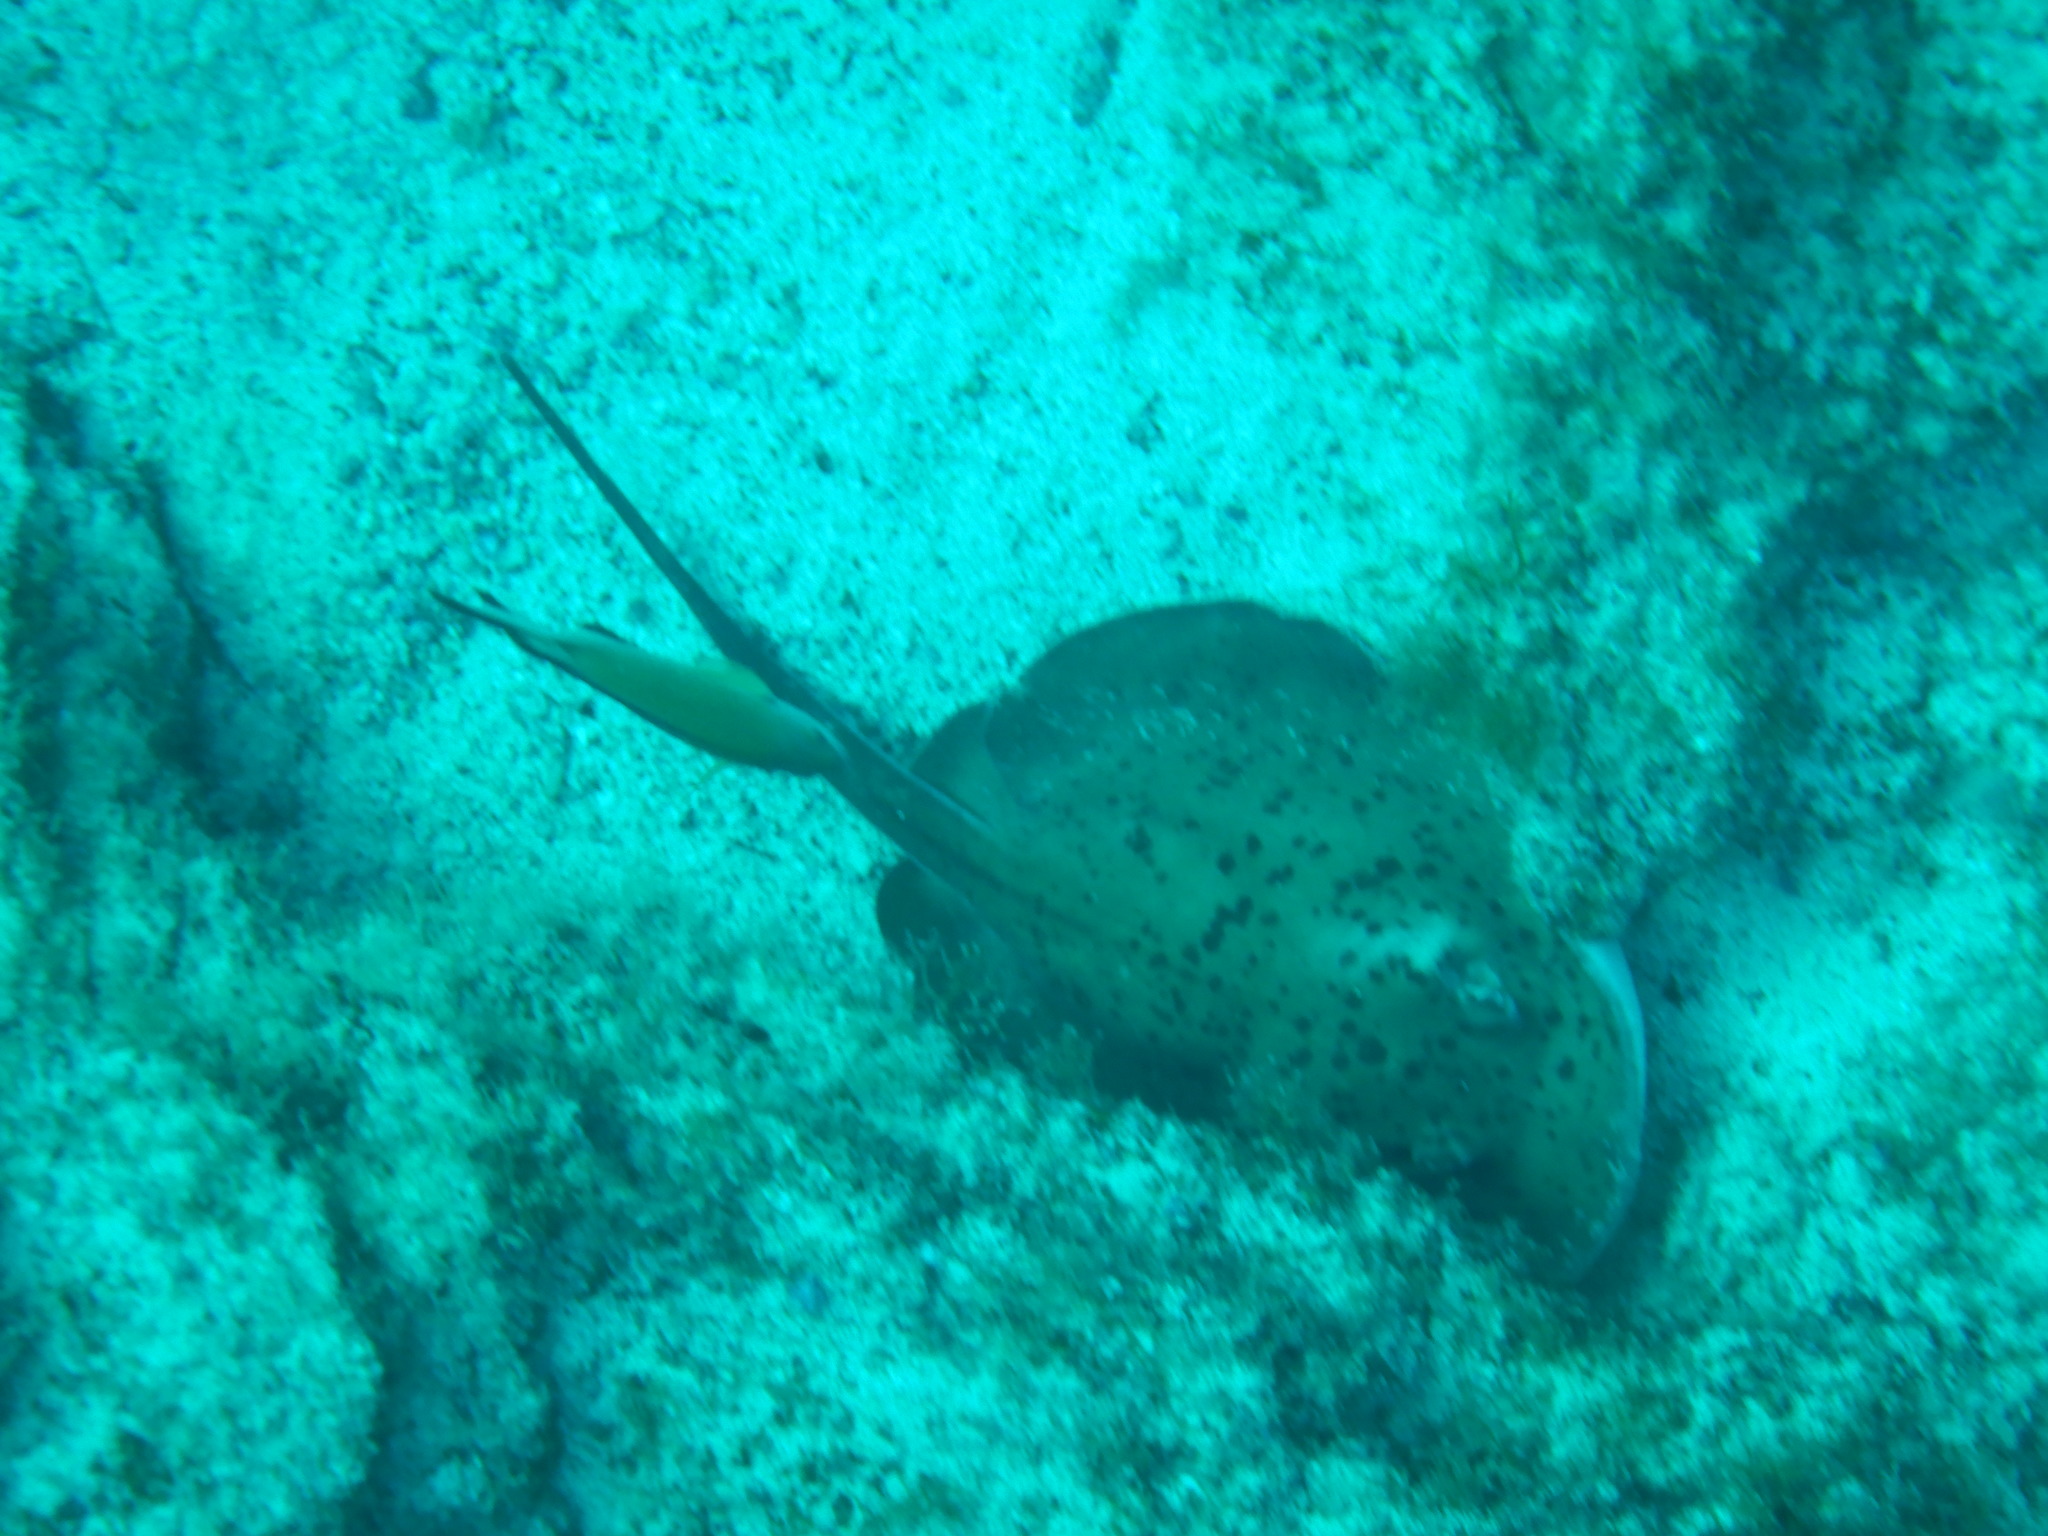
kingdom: Animalia
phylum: Chordata
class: Elasmobranchii
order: Myliobatiformes
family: Dasyatidae
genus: Taeniura
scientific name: Taeniura grabata
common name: Round stingray
